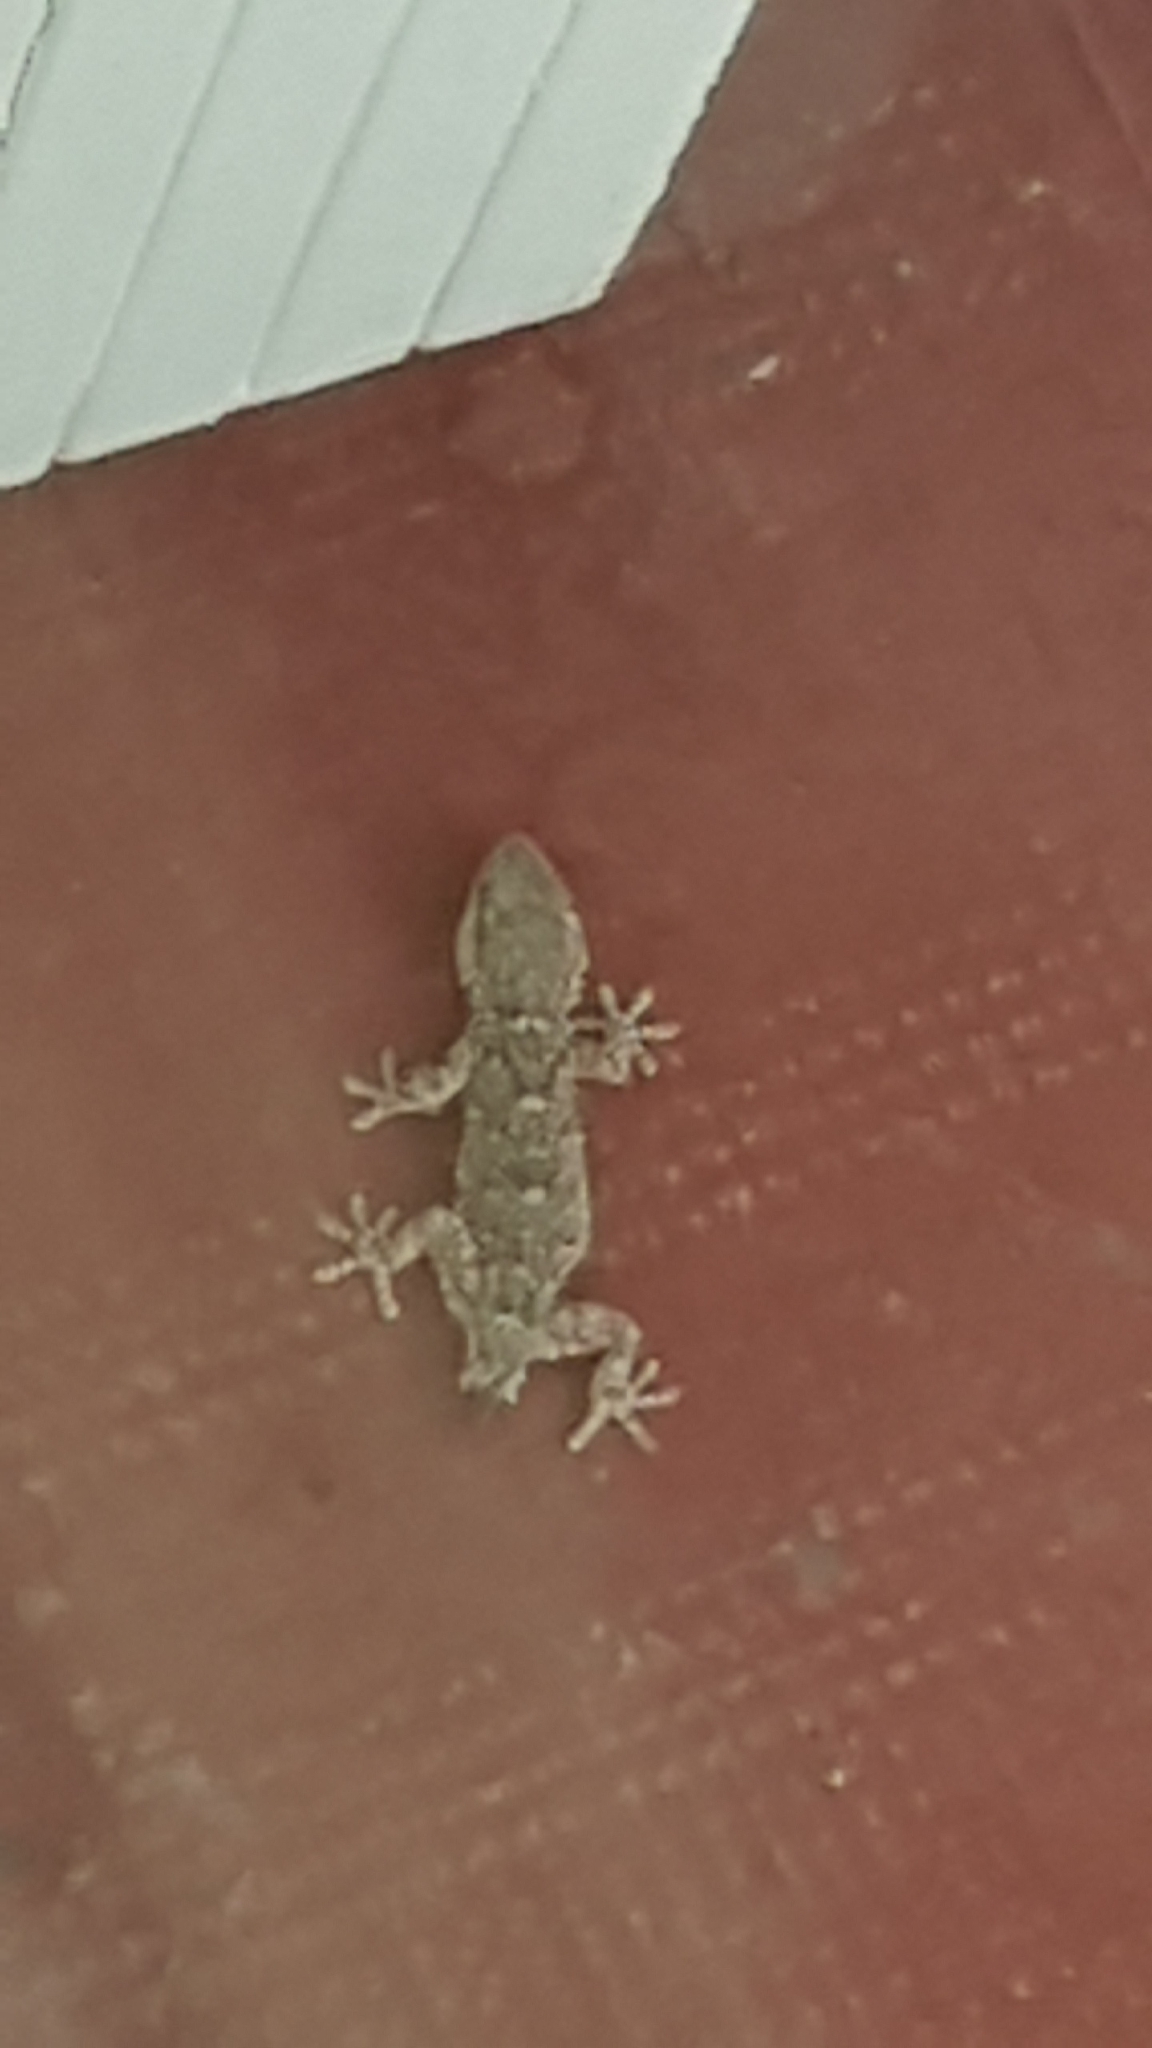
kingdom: Animalia
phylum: Chordata
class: Squamata
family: Phyllodactylidae
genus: Tarentola
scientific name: Tarentola mauritanica
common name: Moorish gecko
